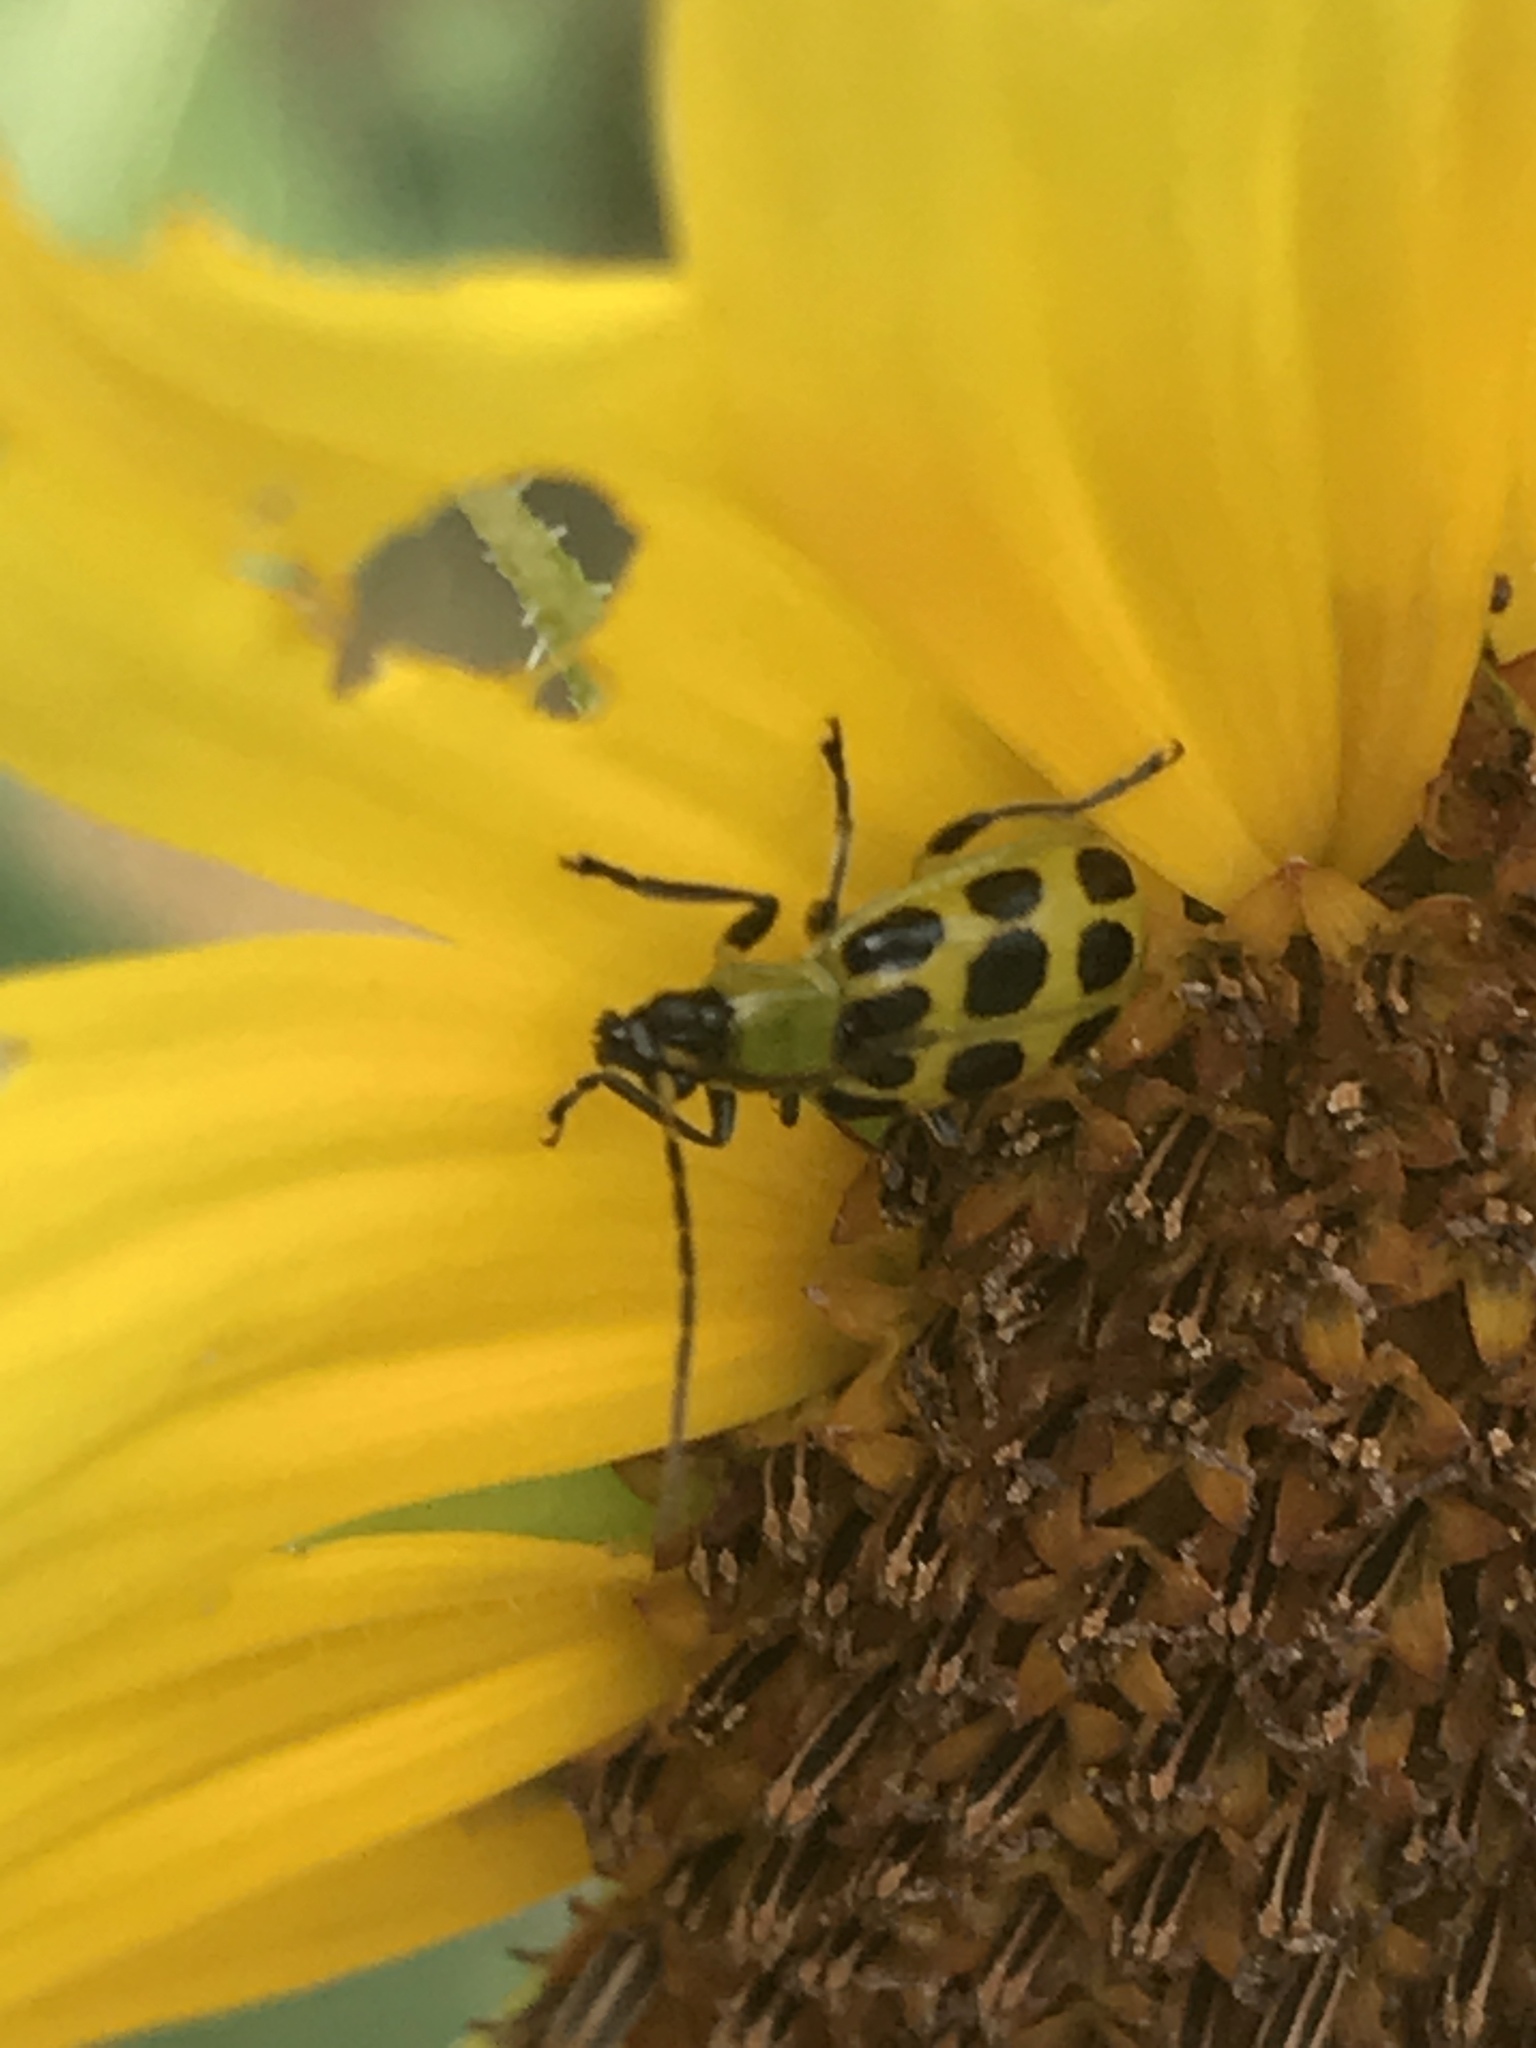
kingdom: Animalia
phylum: Arthropoda
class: Insecta
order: Coleoptera
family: Chrysomelidae
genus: Diabrotica
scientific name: Diabrotica undecimpunctata
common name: Spotted cucumber beetle
